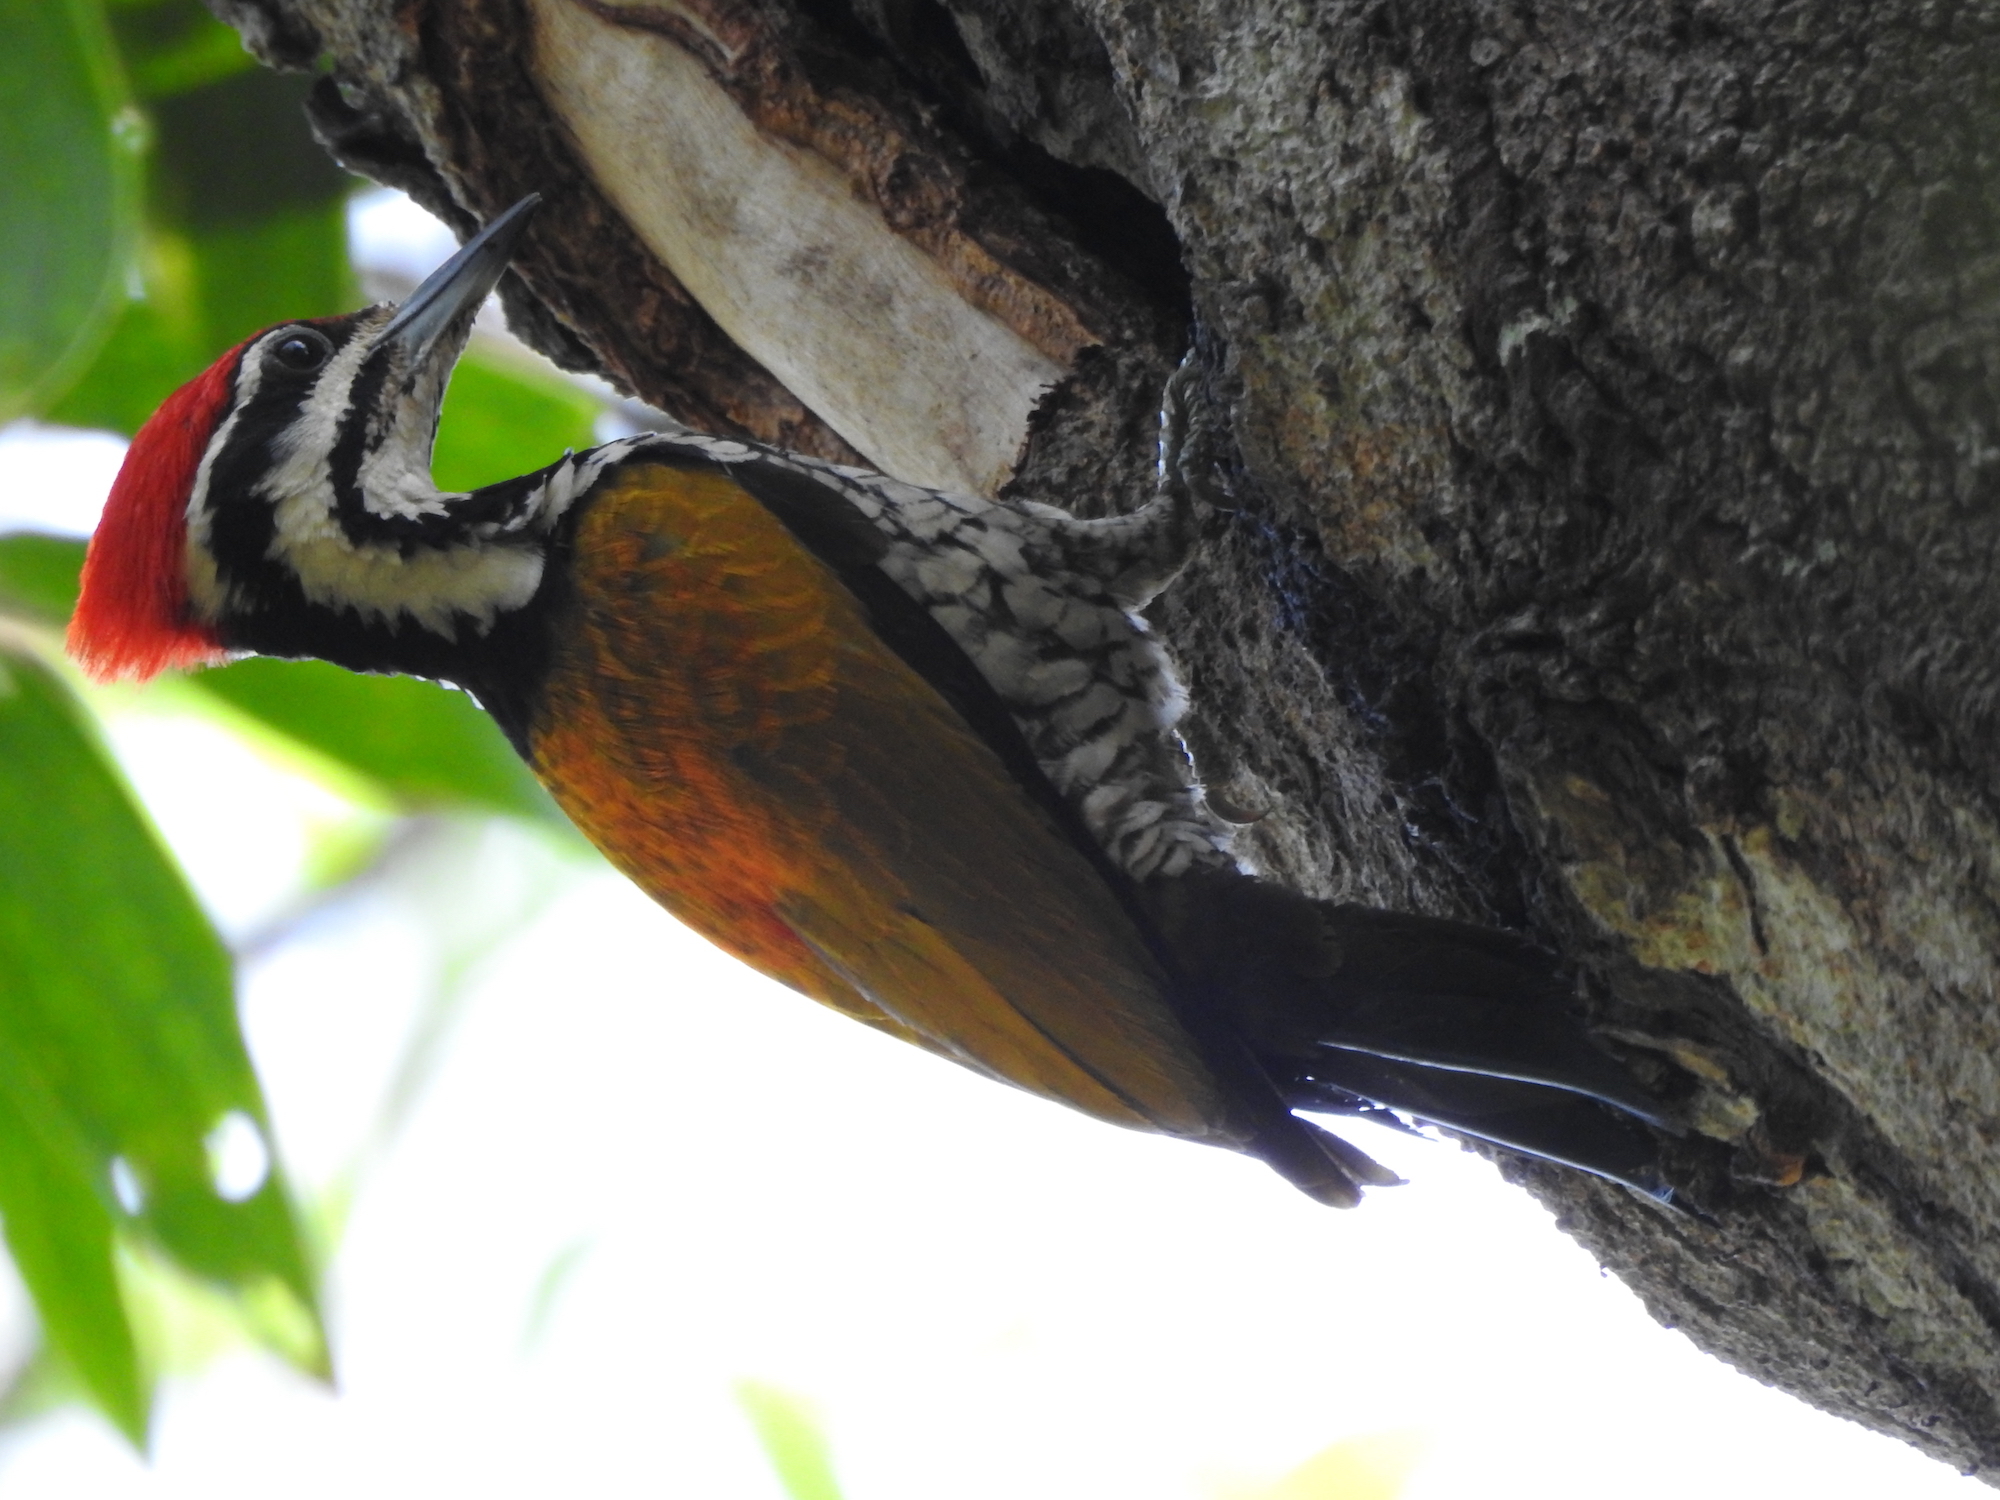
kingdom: Animalia
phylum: Chordata
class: Aves
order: Piciformes
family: Picidae
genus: Dinopium
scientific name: Dinopium javanense
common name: Common flameback
